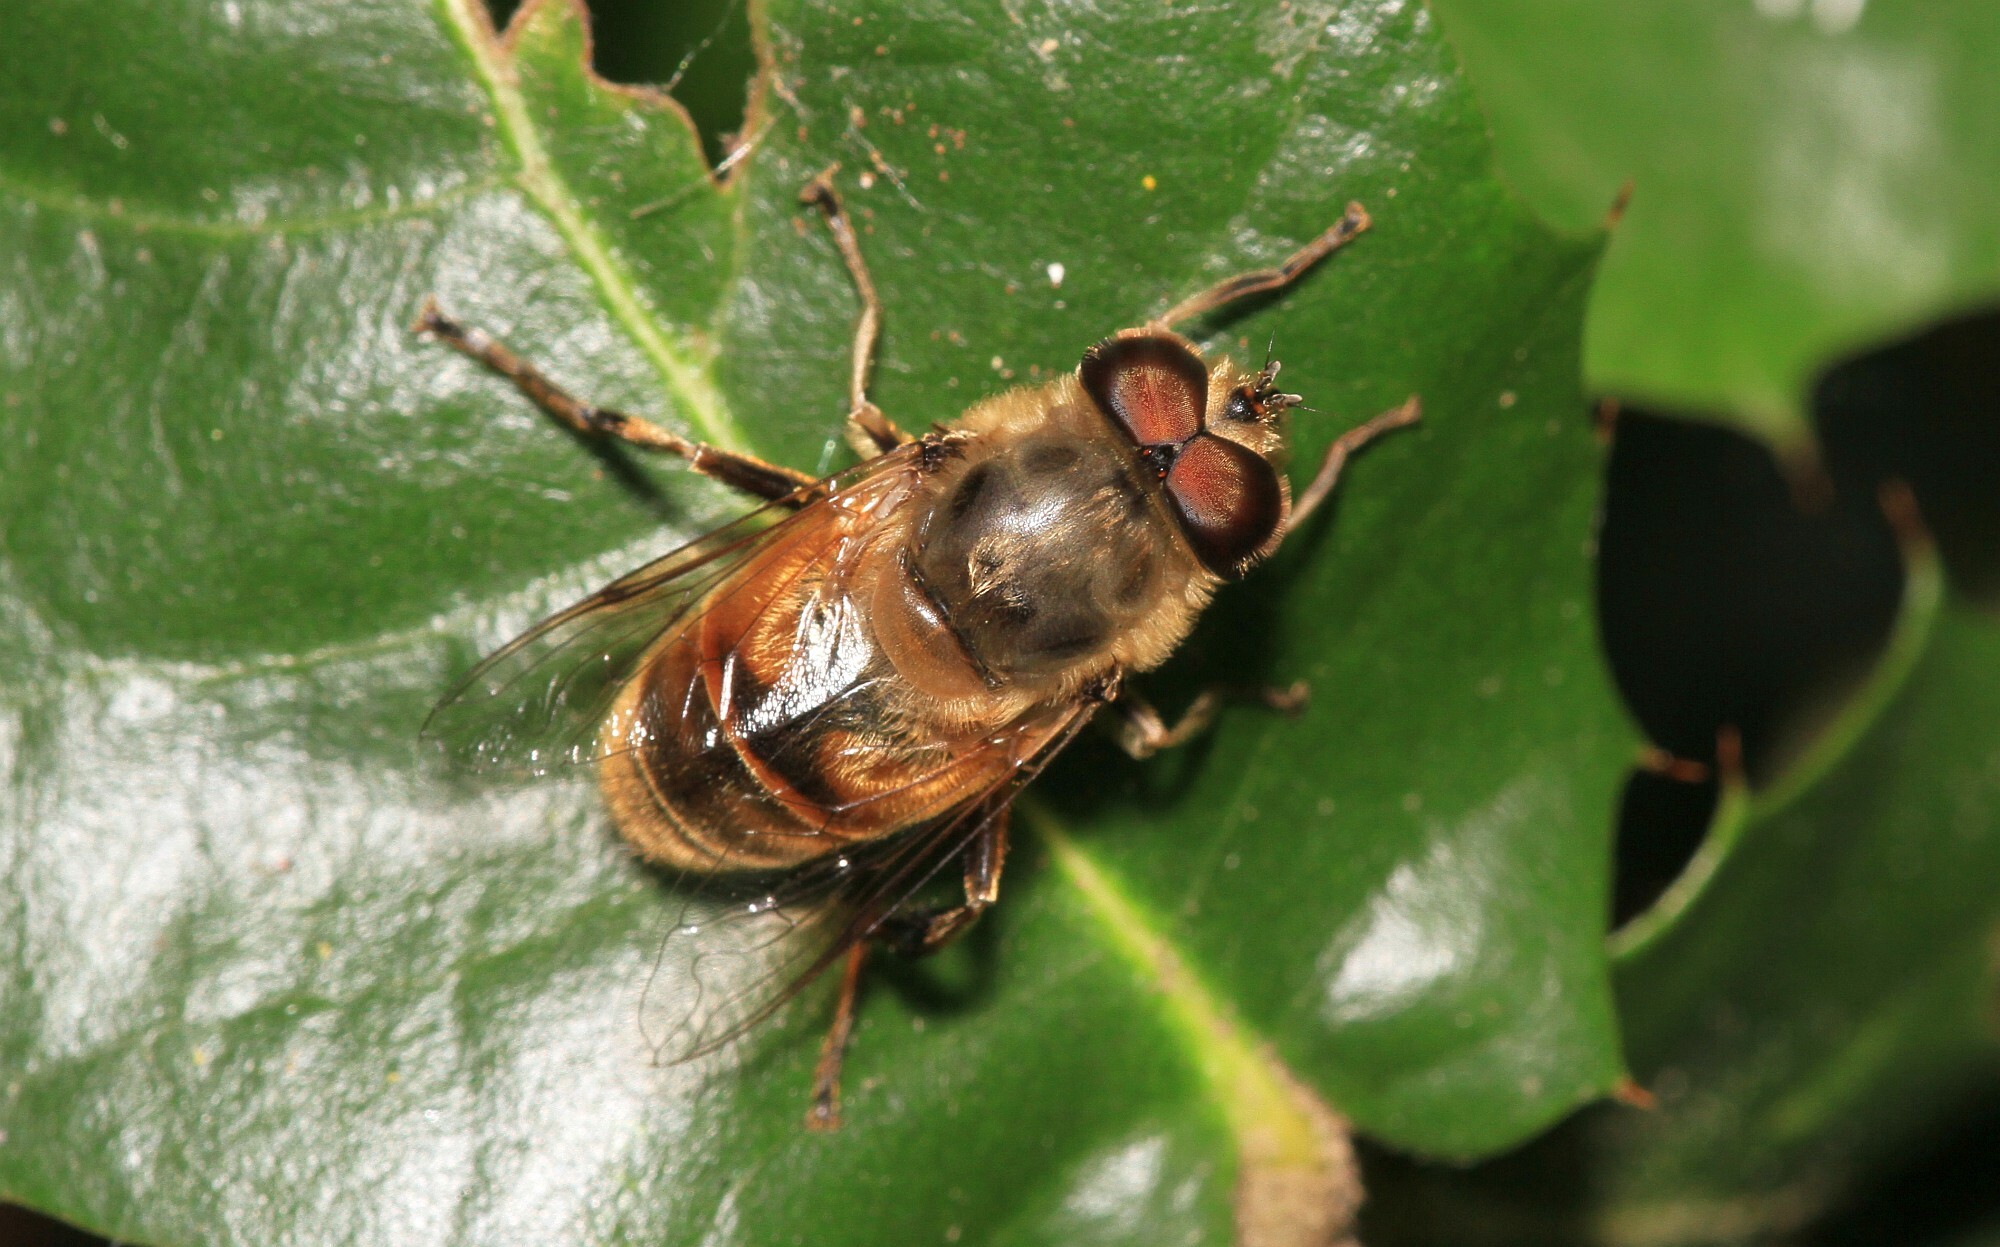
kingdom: Animalia
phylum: Arthropoda
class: Insecta
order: Diptera
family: Syrphidae
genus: Eristalis
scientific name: Eristalis tenax
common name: Drone fly
